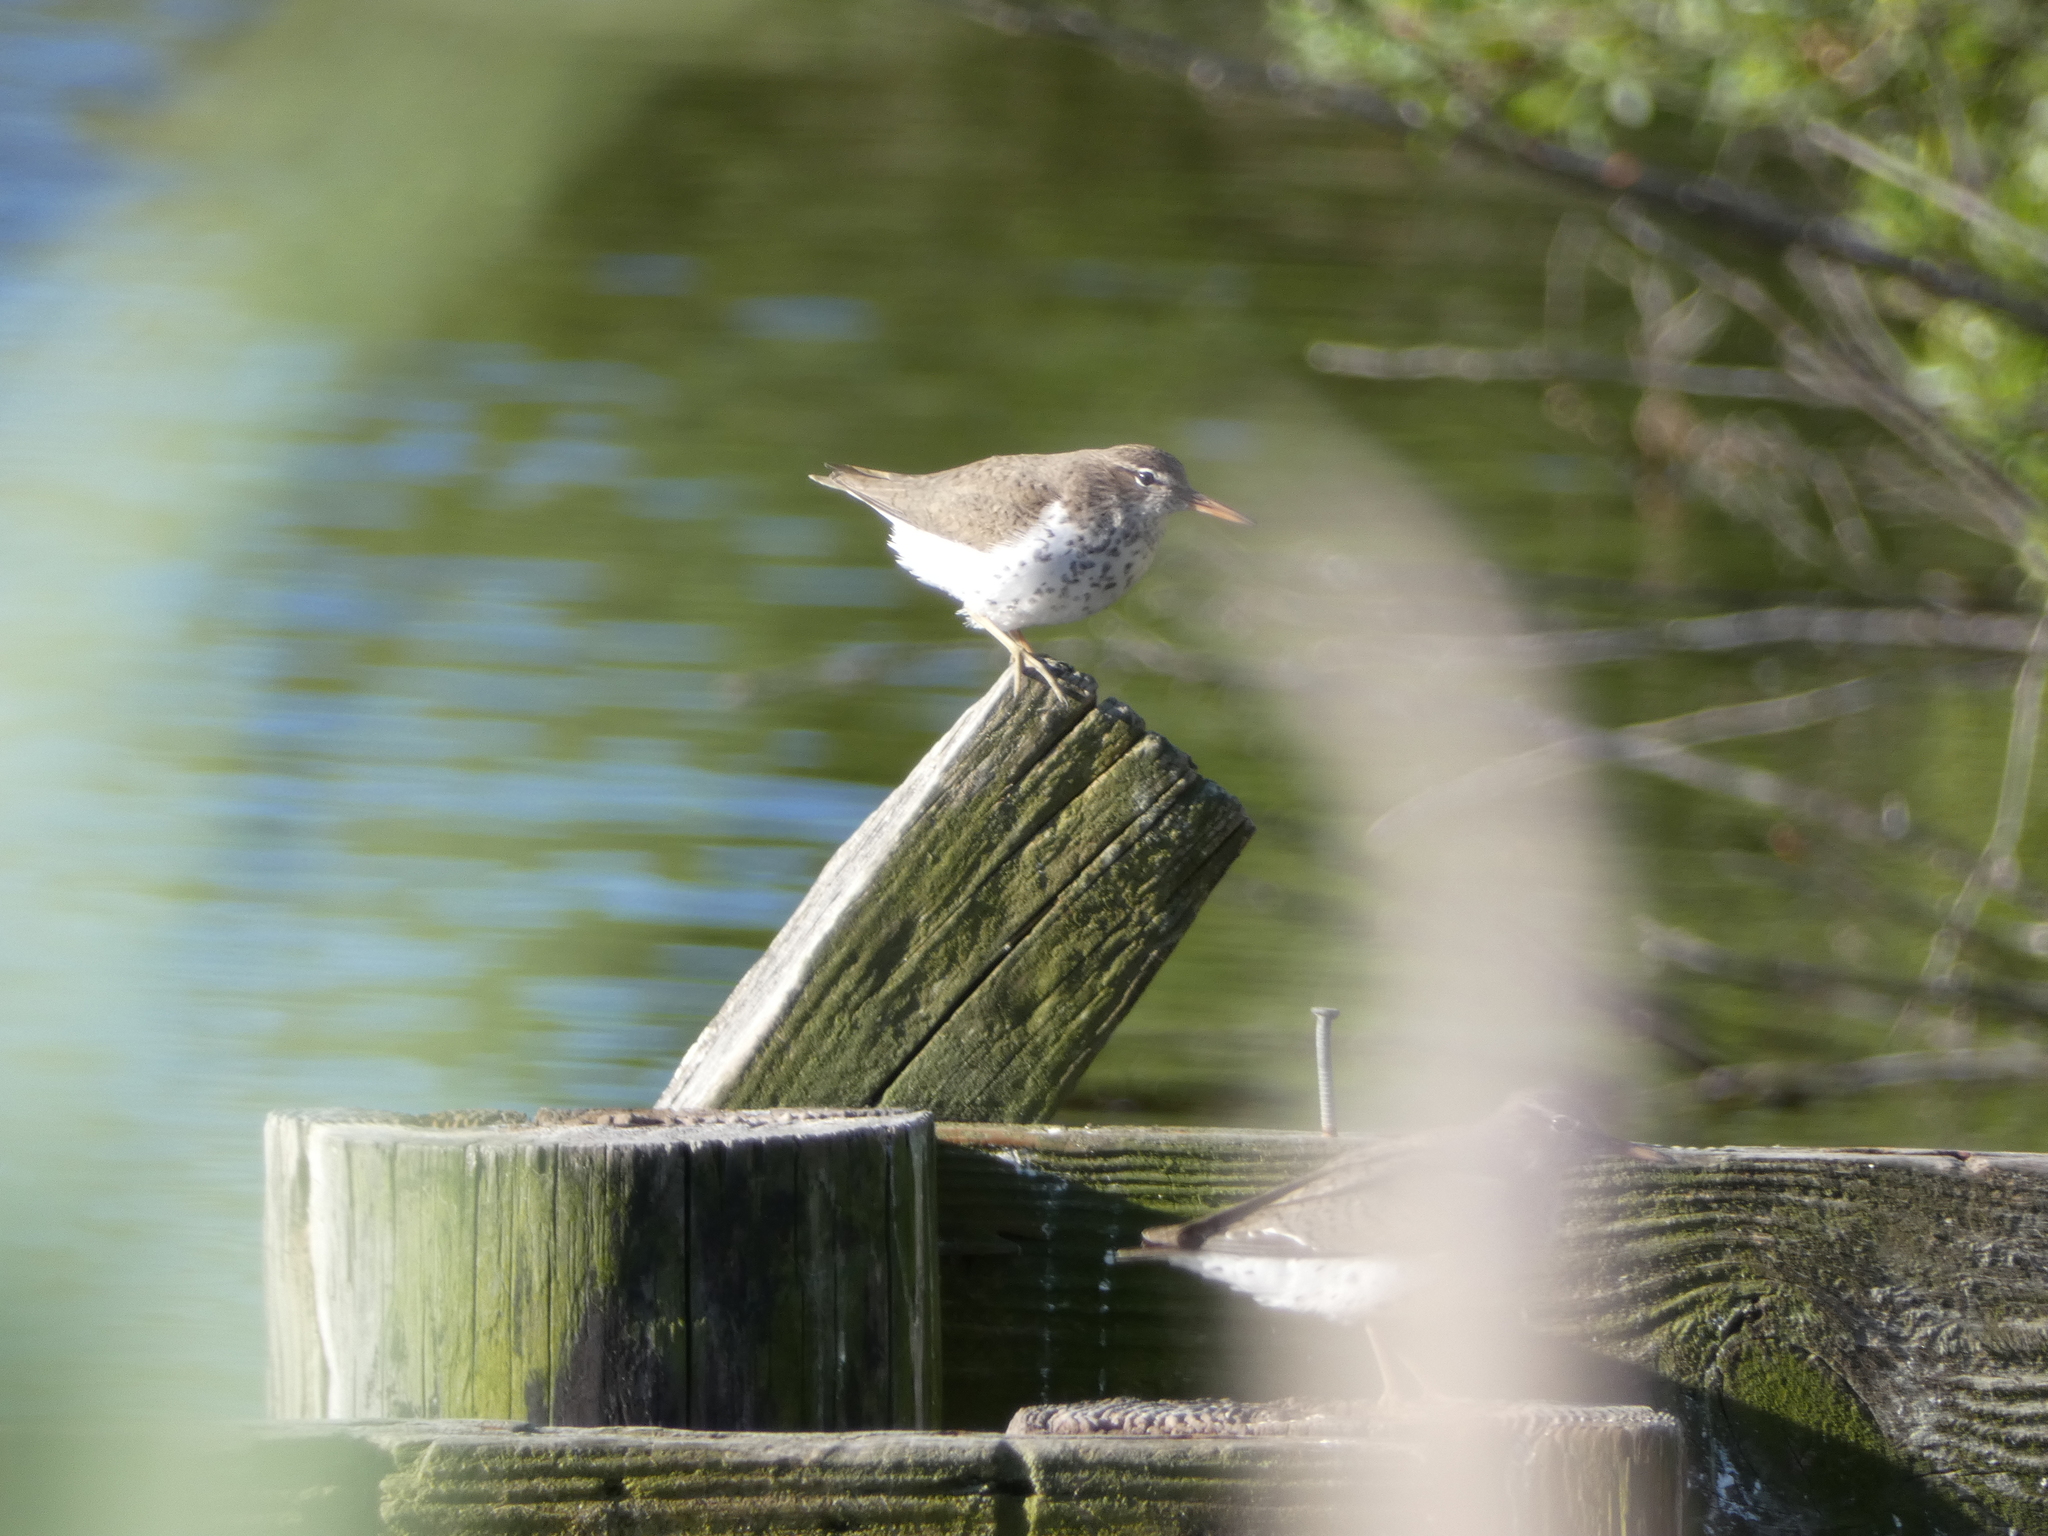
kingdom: Animalia
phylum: Chordata
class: Aves
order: Charadriiformes
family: Scolopacidae
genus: Actitis
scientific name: Actitis macularius
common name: Spotted sandpiper
